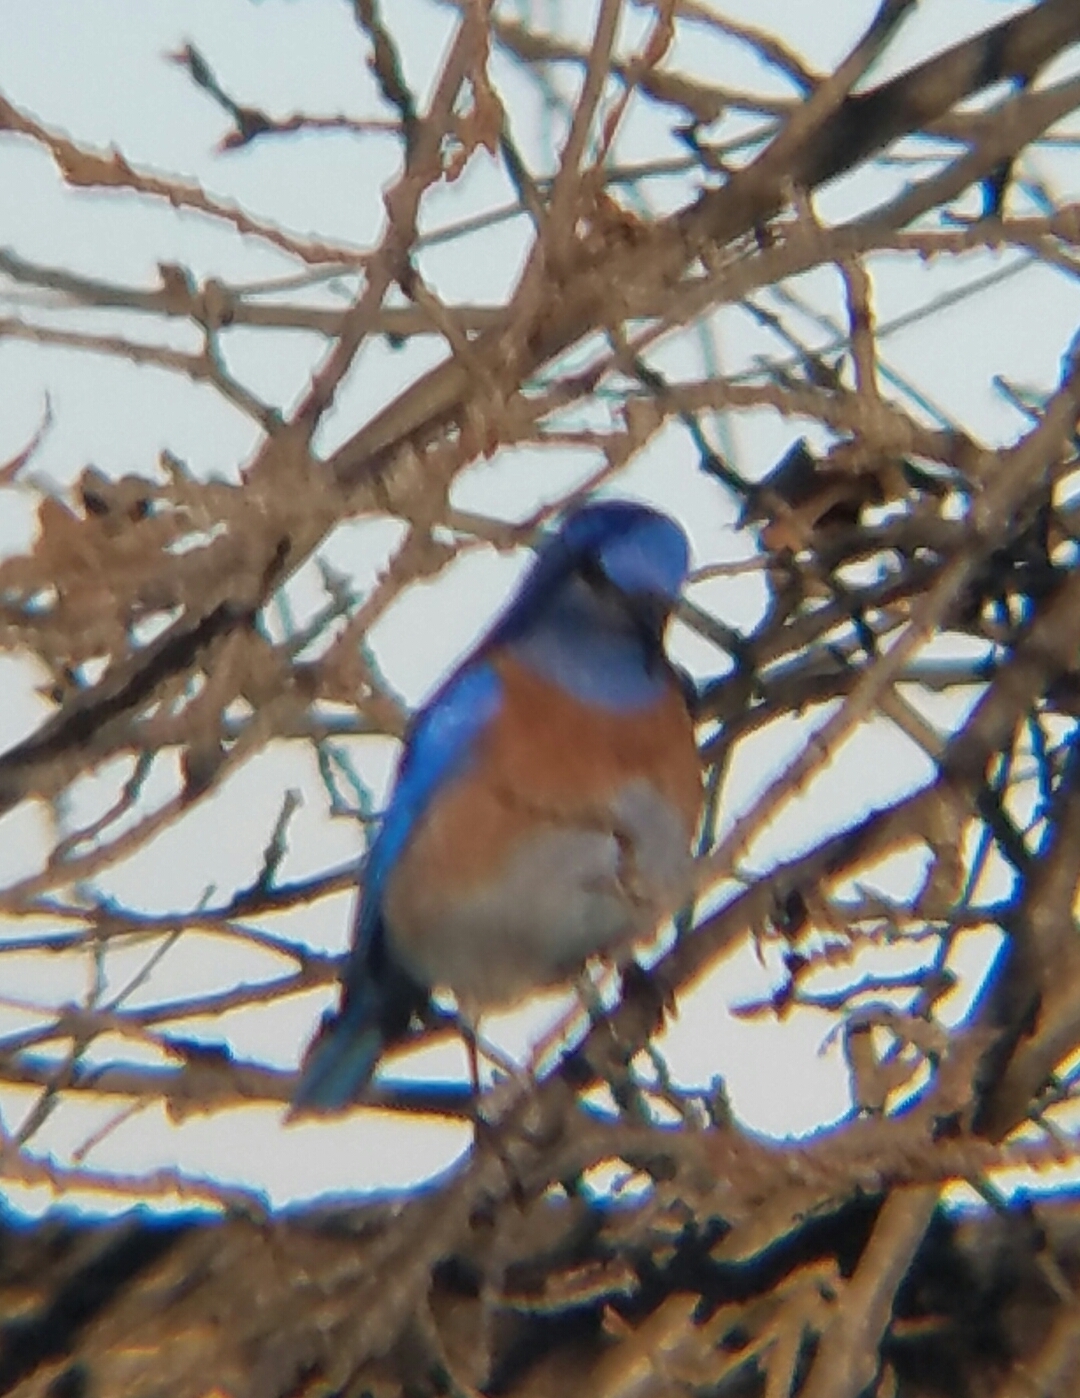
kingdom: Animalia
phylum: Chordata
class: Aves
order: Passeriformes
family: Turdidae
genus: Sialia
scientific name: Sialia mexicana
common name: Western bluebird
